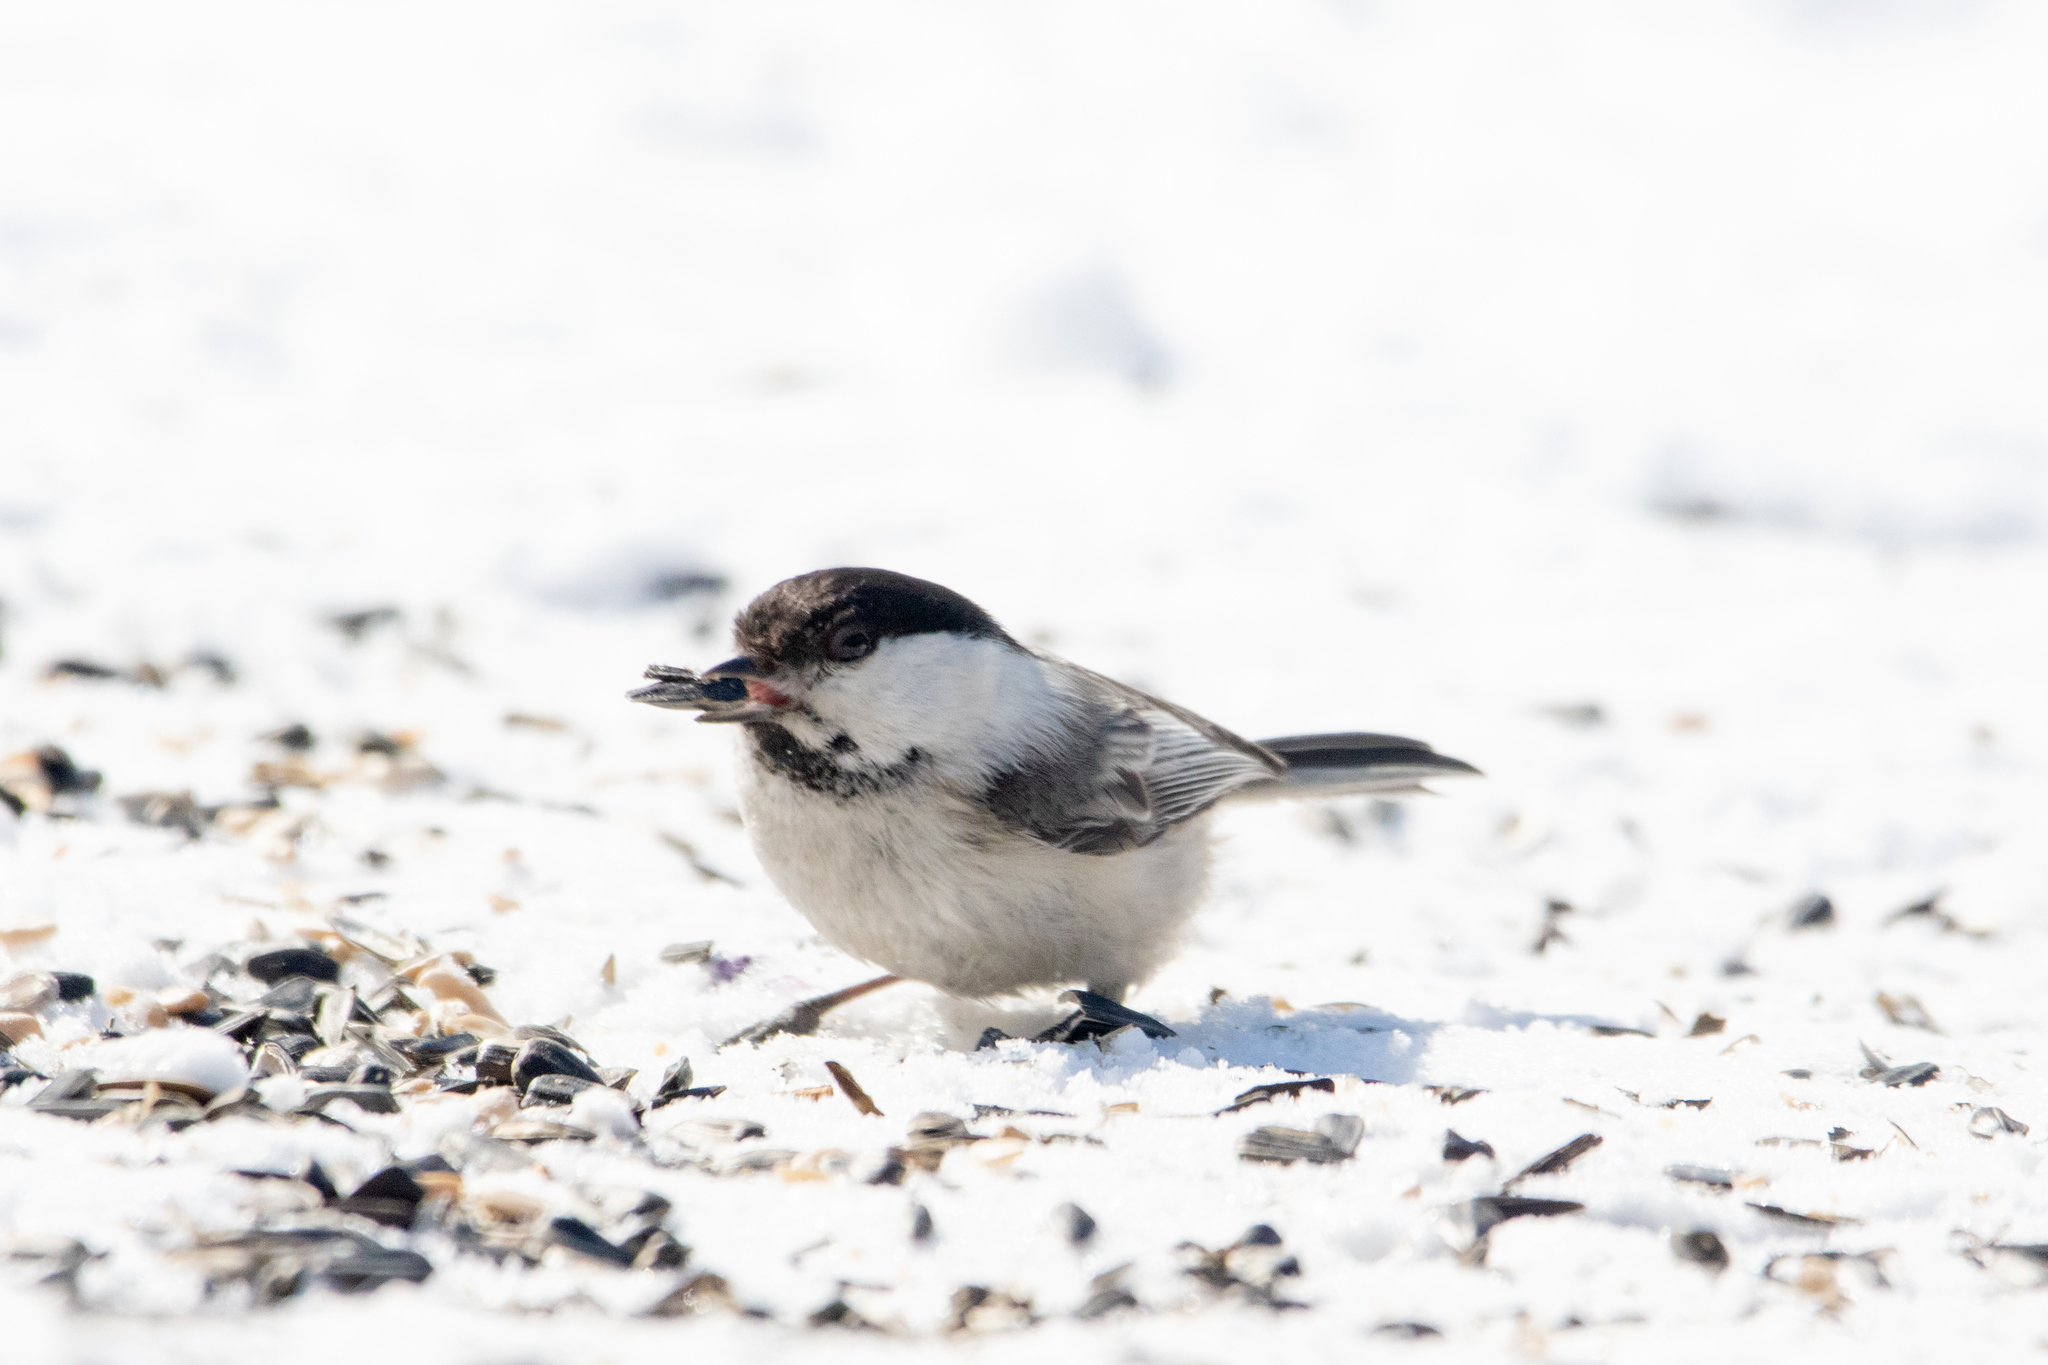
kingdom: Animalia
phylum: Chordata
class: Aves
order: Passeriformes
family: Paridae
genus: Poecile
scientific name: Poecile montanus
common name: Willow tit
